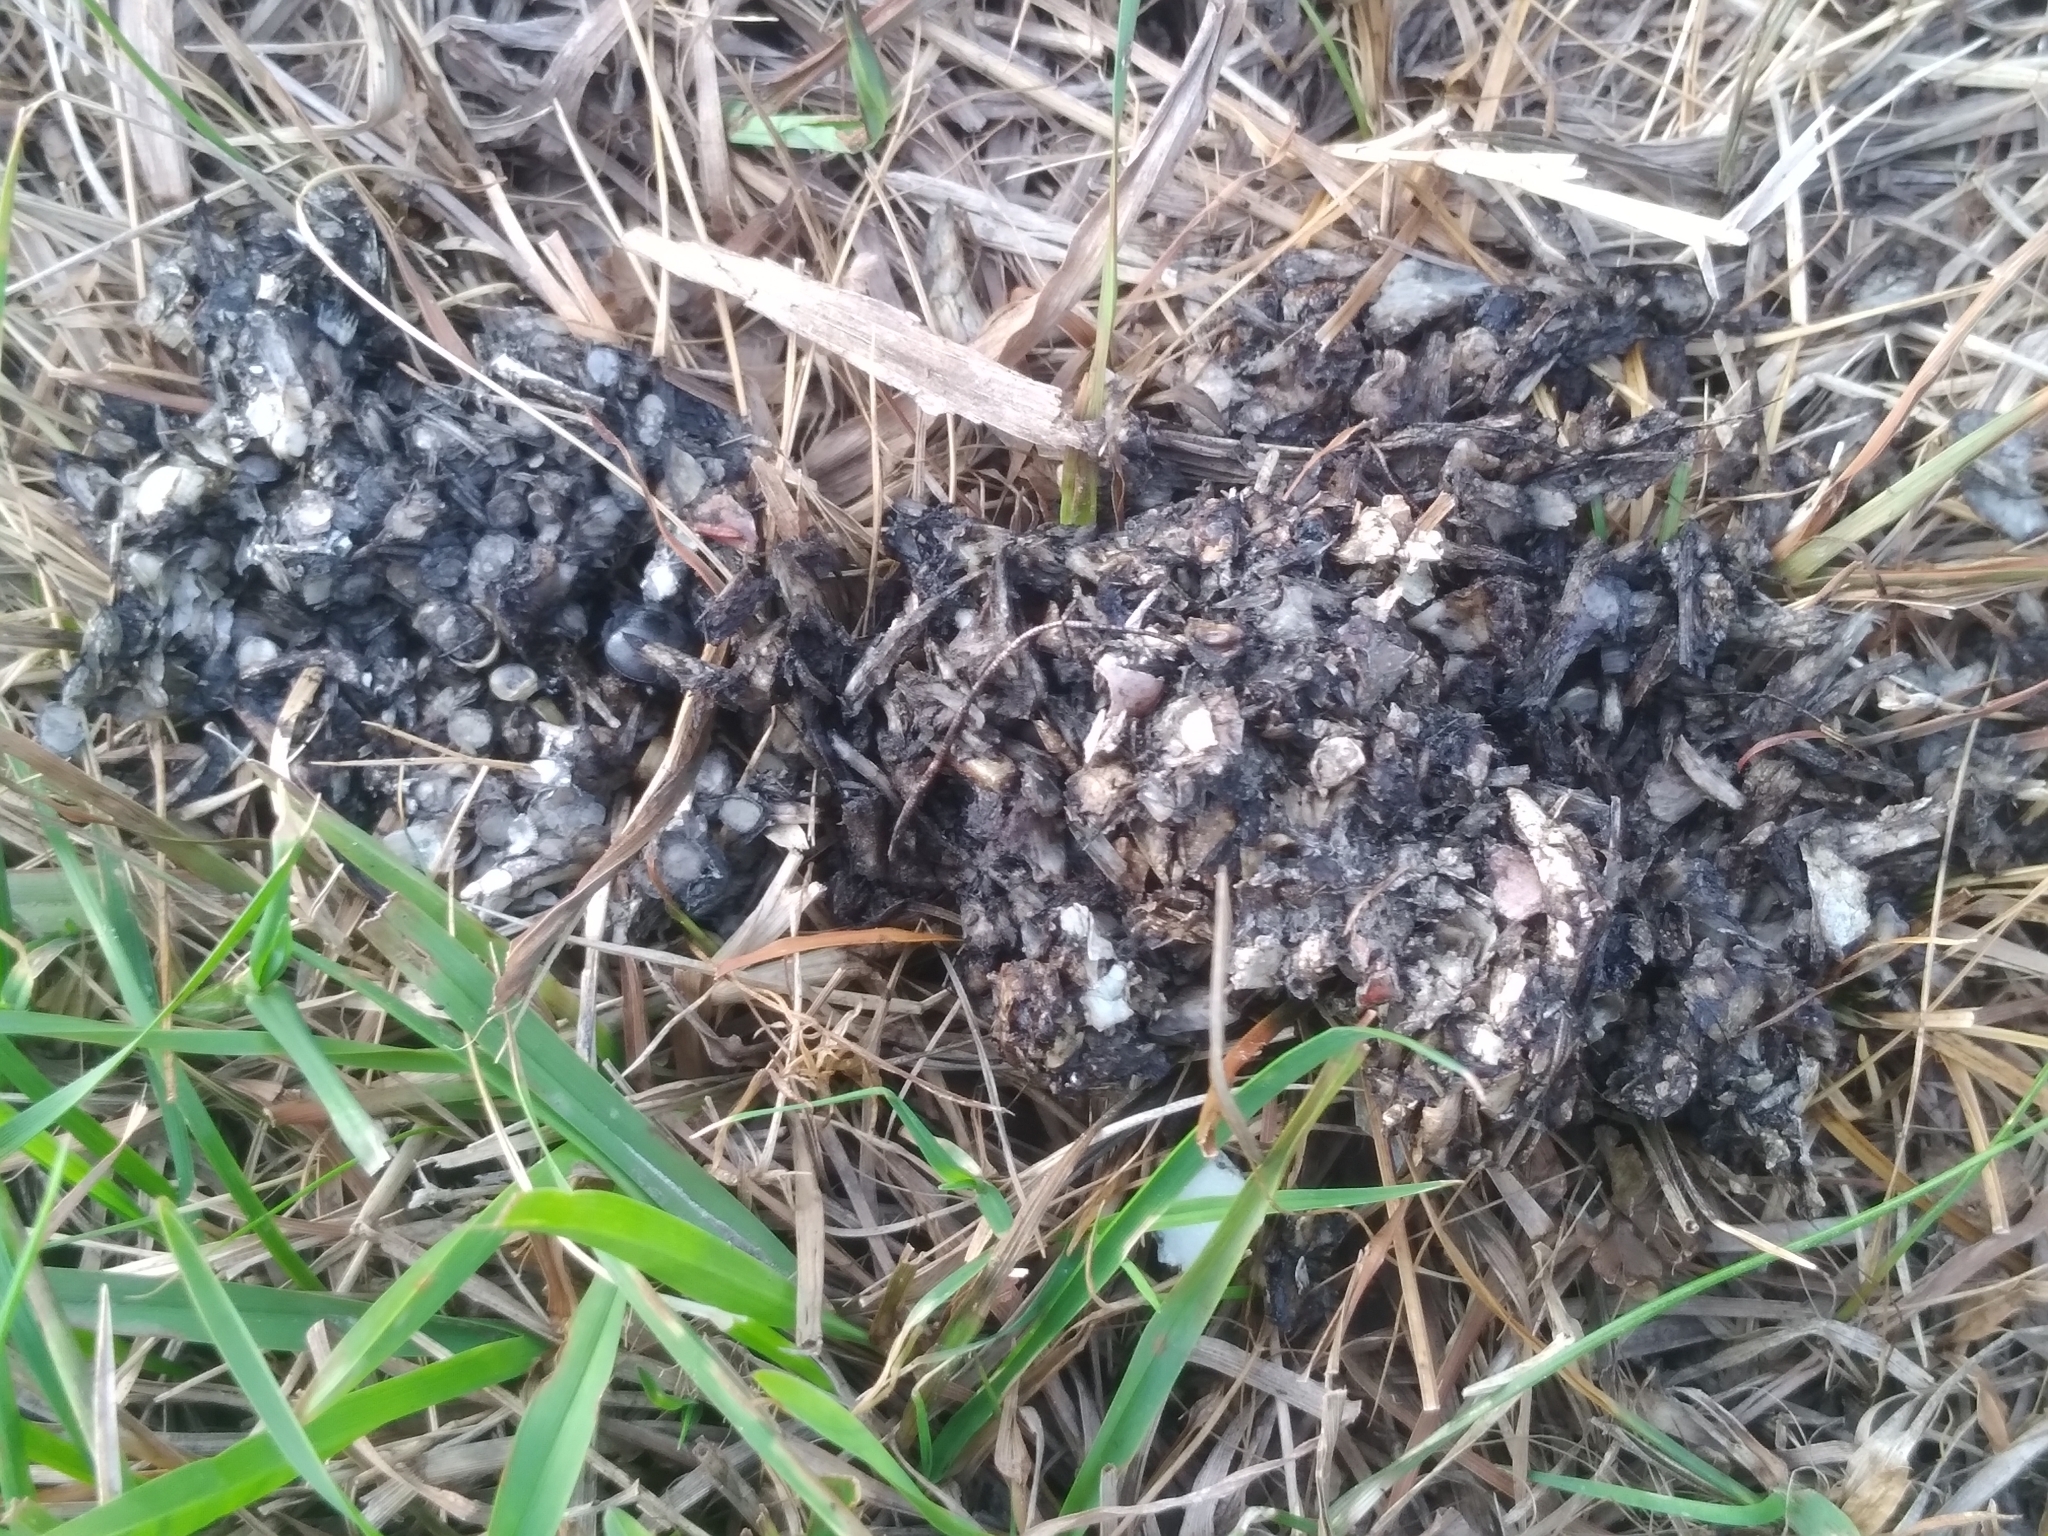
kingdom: Animalia
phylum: Chordata
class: Mammalia
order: Carnivora
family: Mustelidae
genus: Lontra
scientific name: Lontra longicaudis
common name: Neotropical otter
